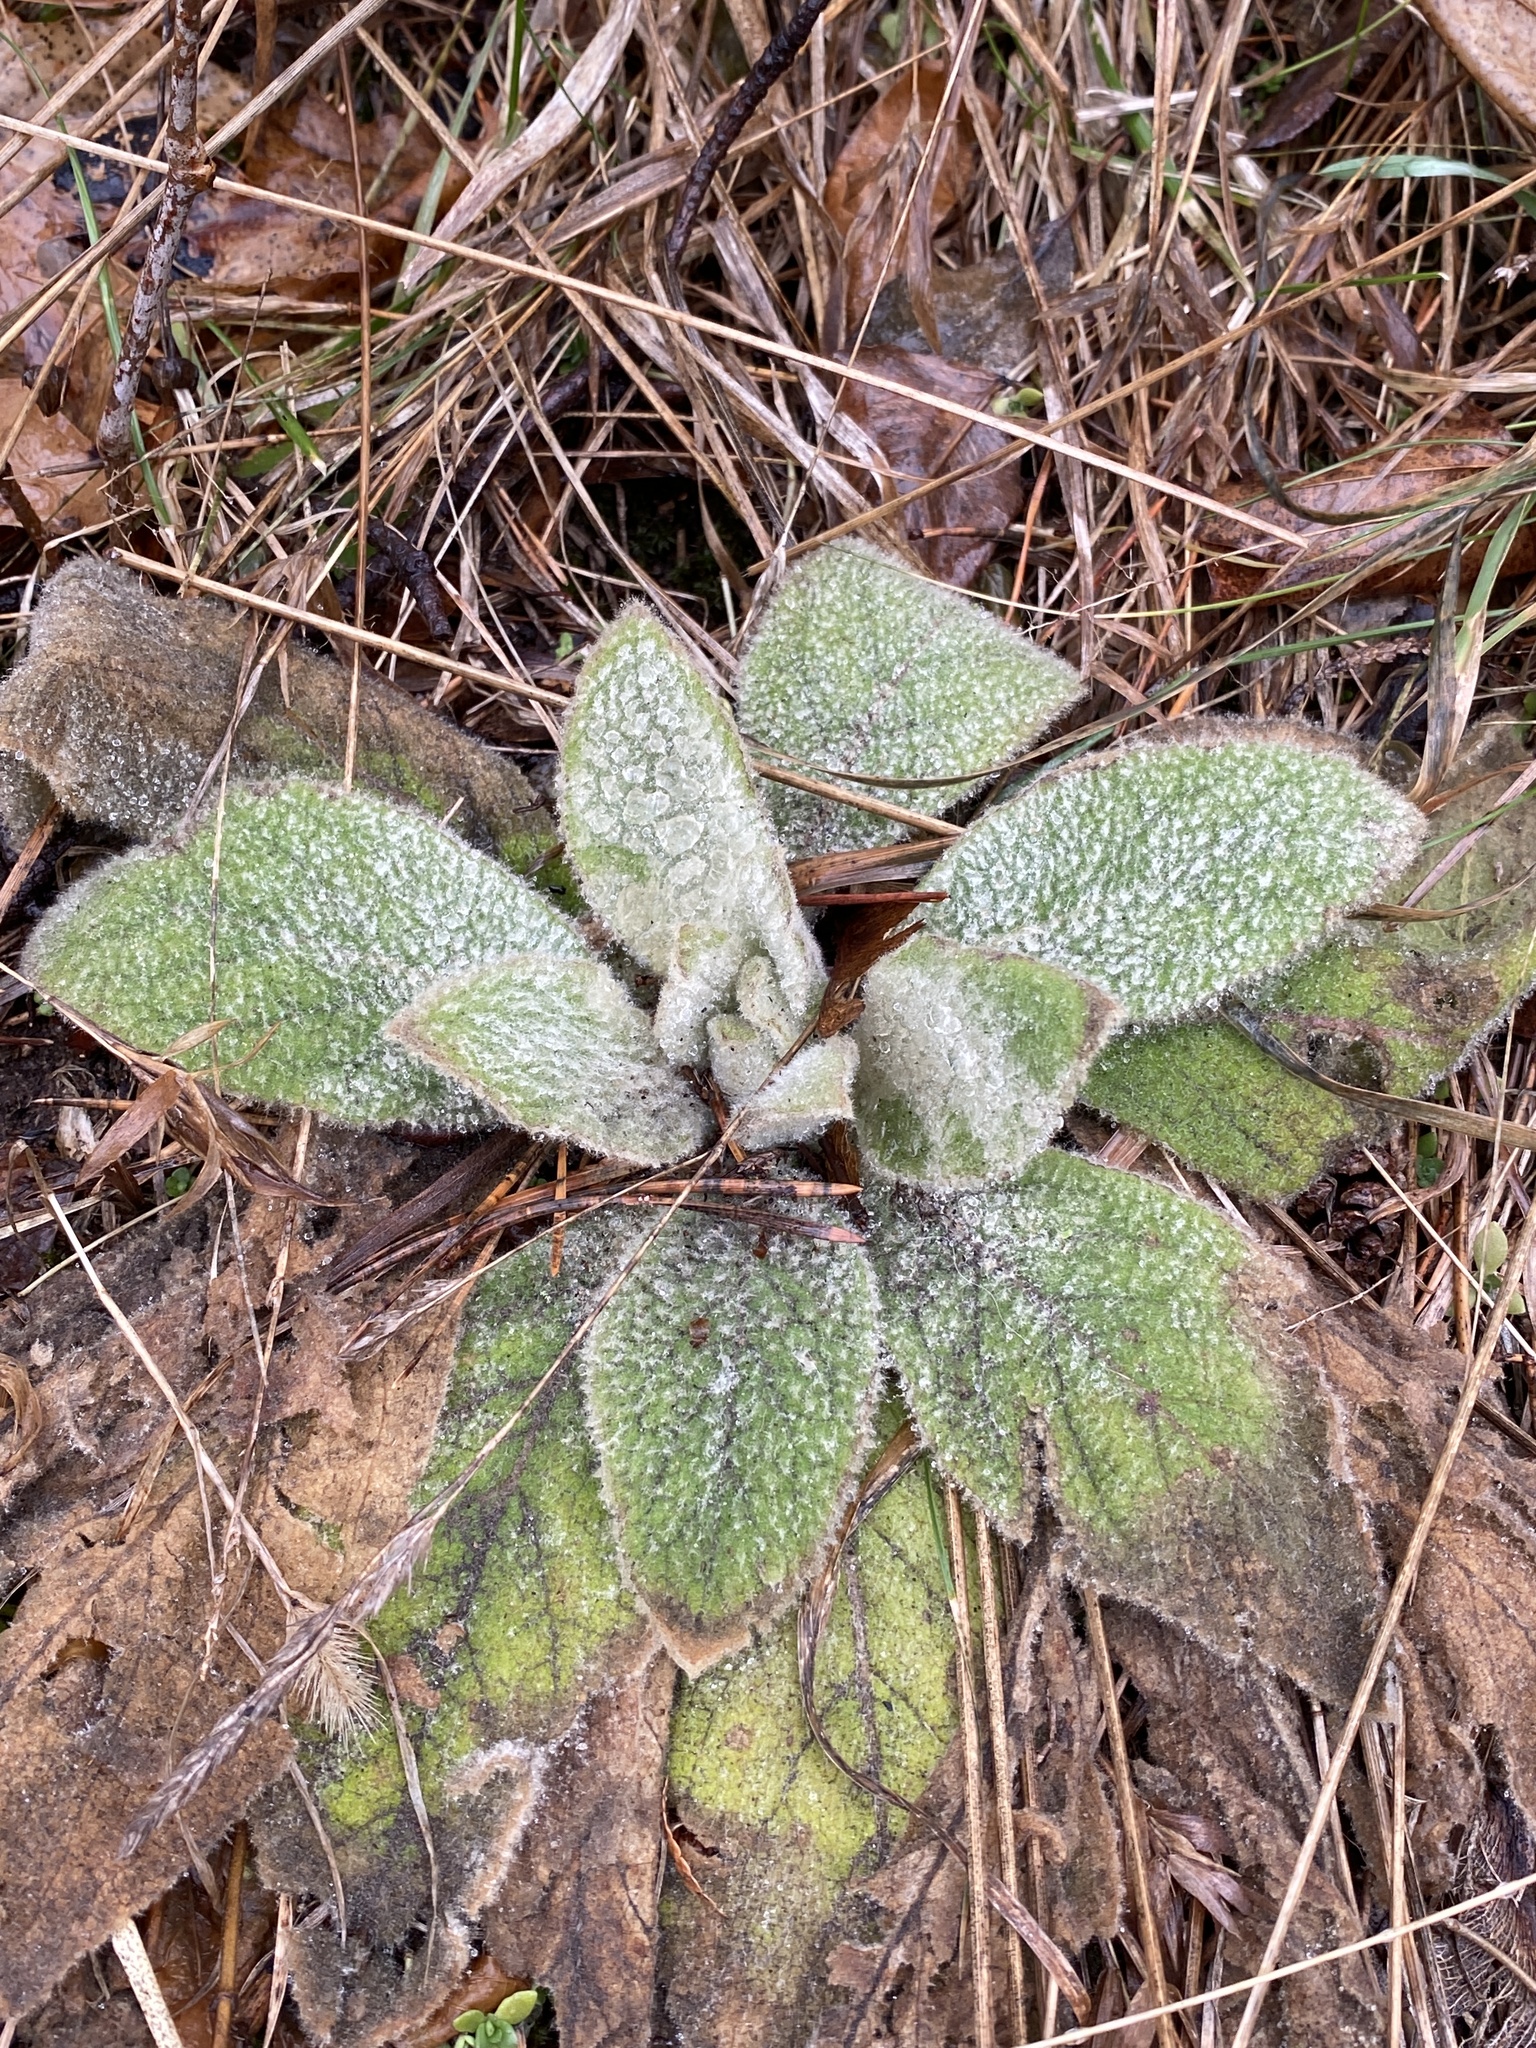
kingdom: Plantae
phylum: Tracheophyta
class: Magnoliopsida
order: Lamiales
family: Scrophulariaceae
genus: Verbascum
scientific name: Verbascum thapsus
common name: Common mullein
